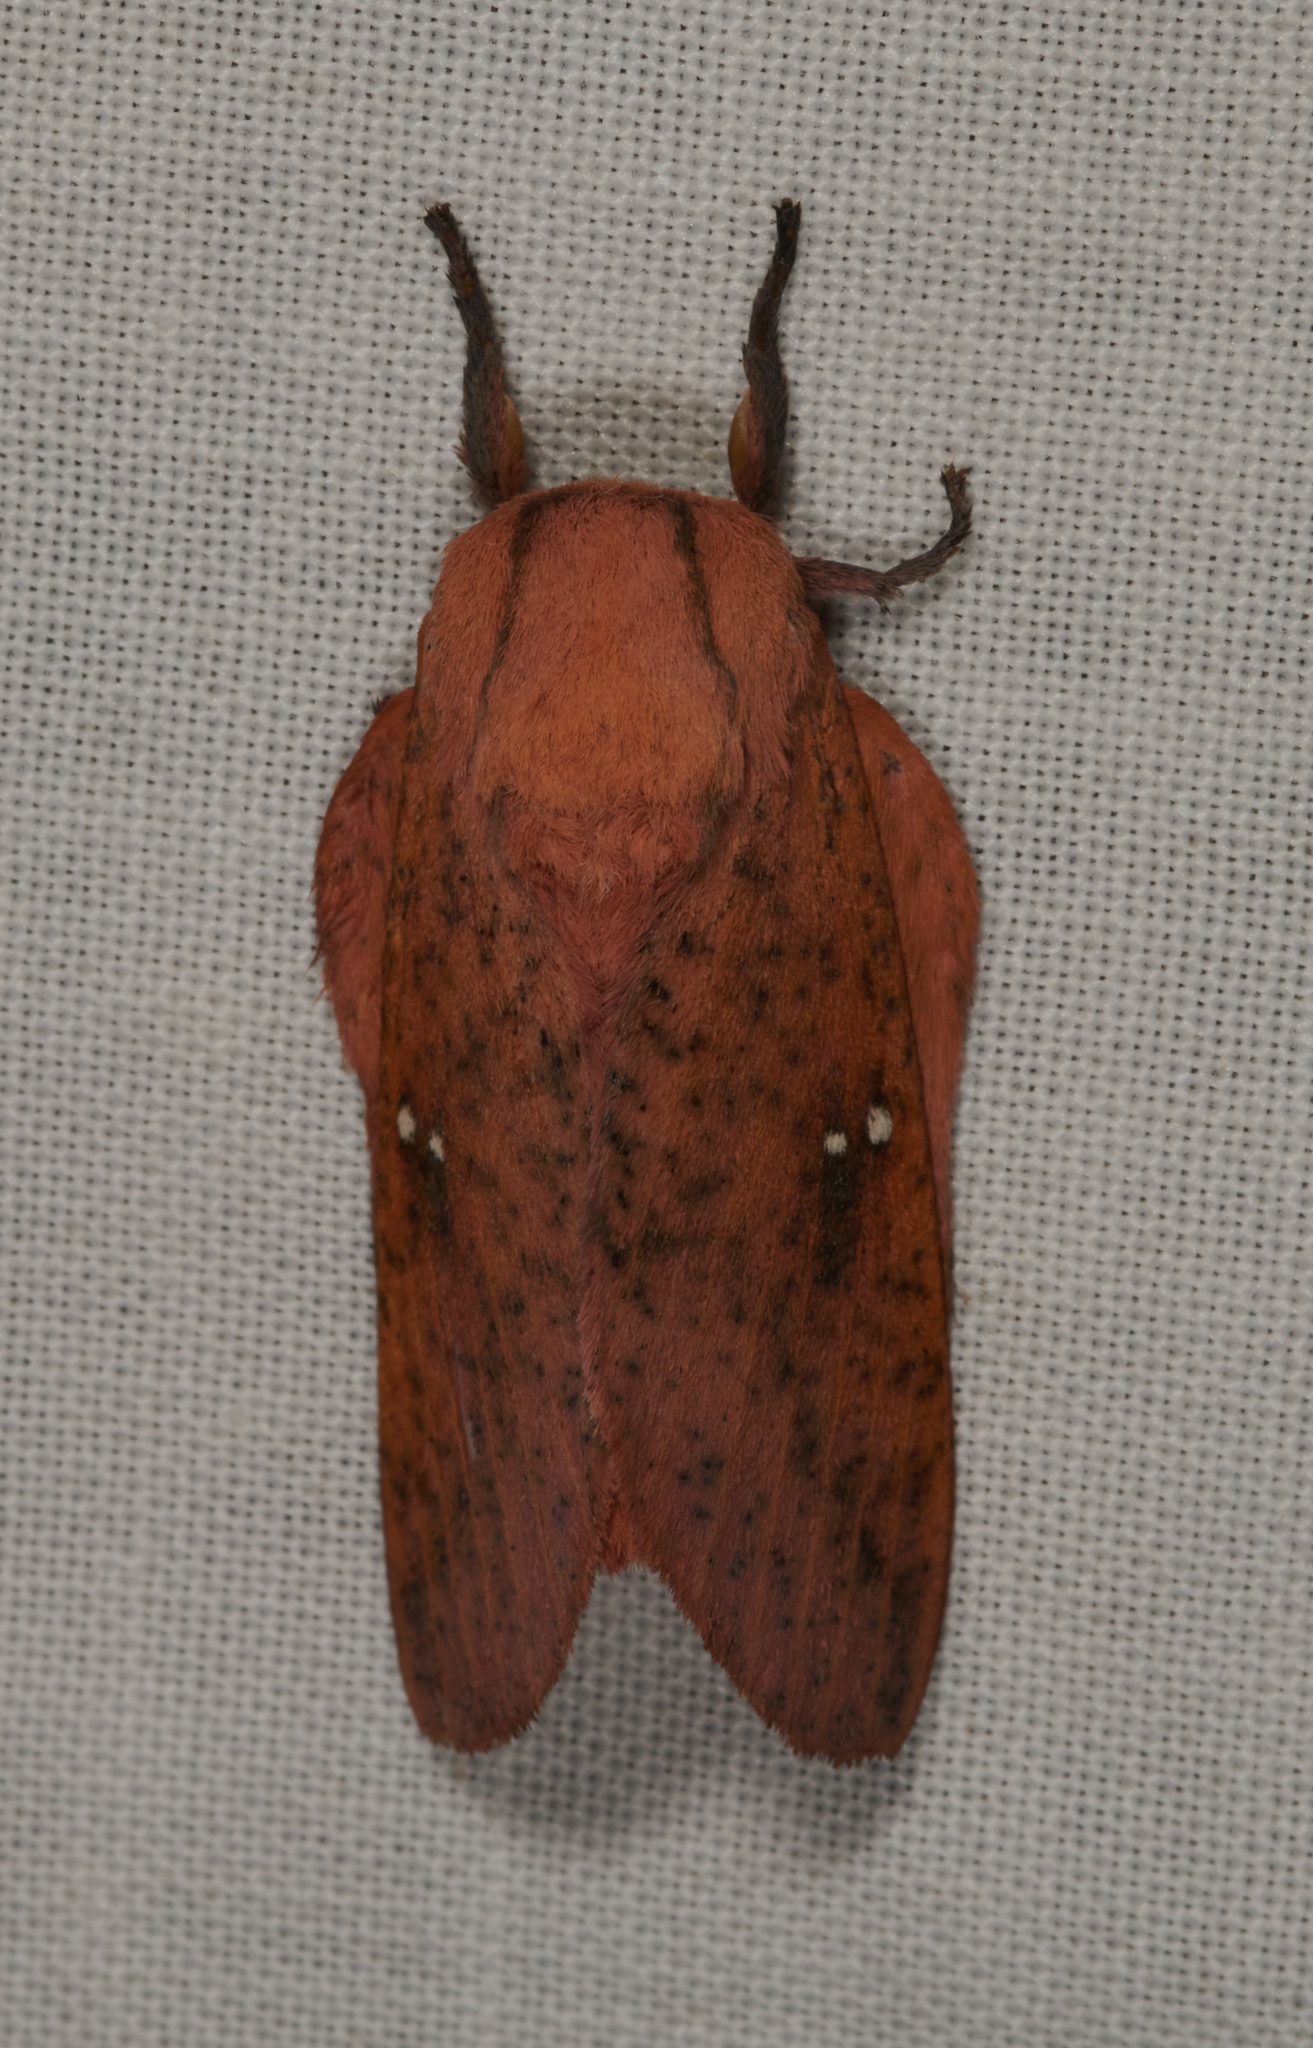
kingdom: Animalia
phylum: Arthropoda
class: Insecta
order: Lepidoptera
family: Saturniidae
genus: Syssphinx
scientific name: Syssphinx bicolor
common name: Honey locust moth
